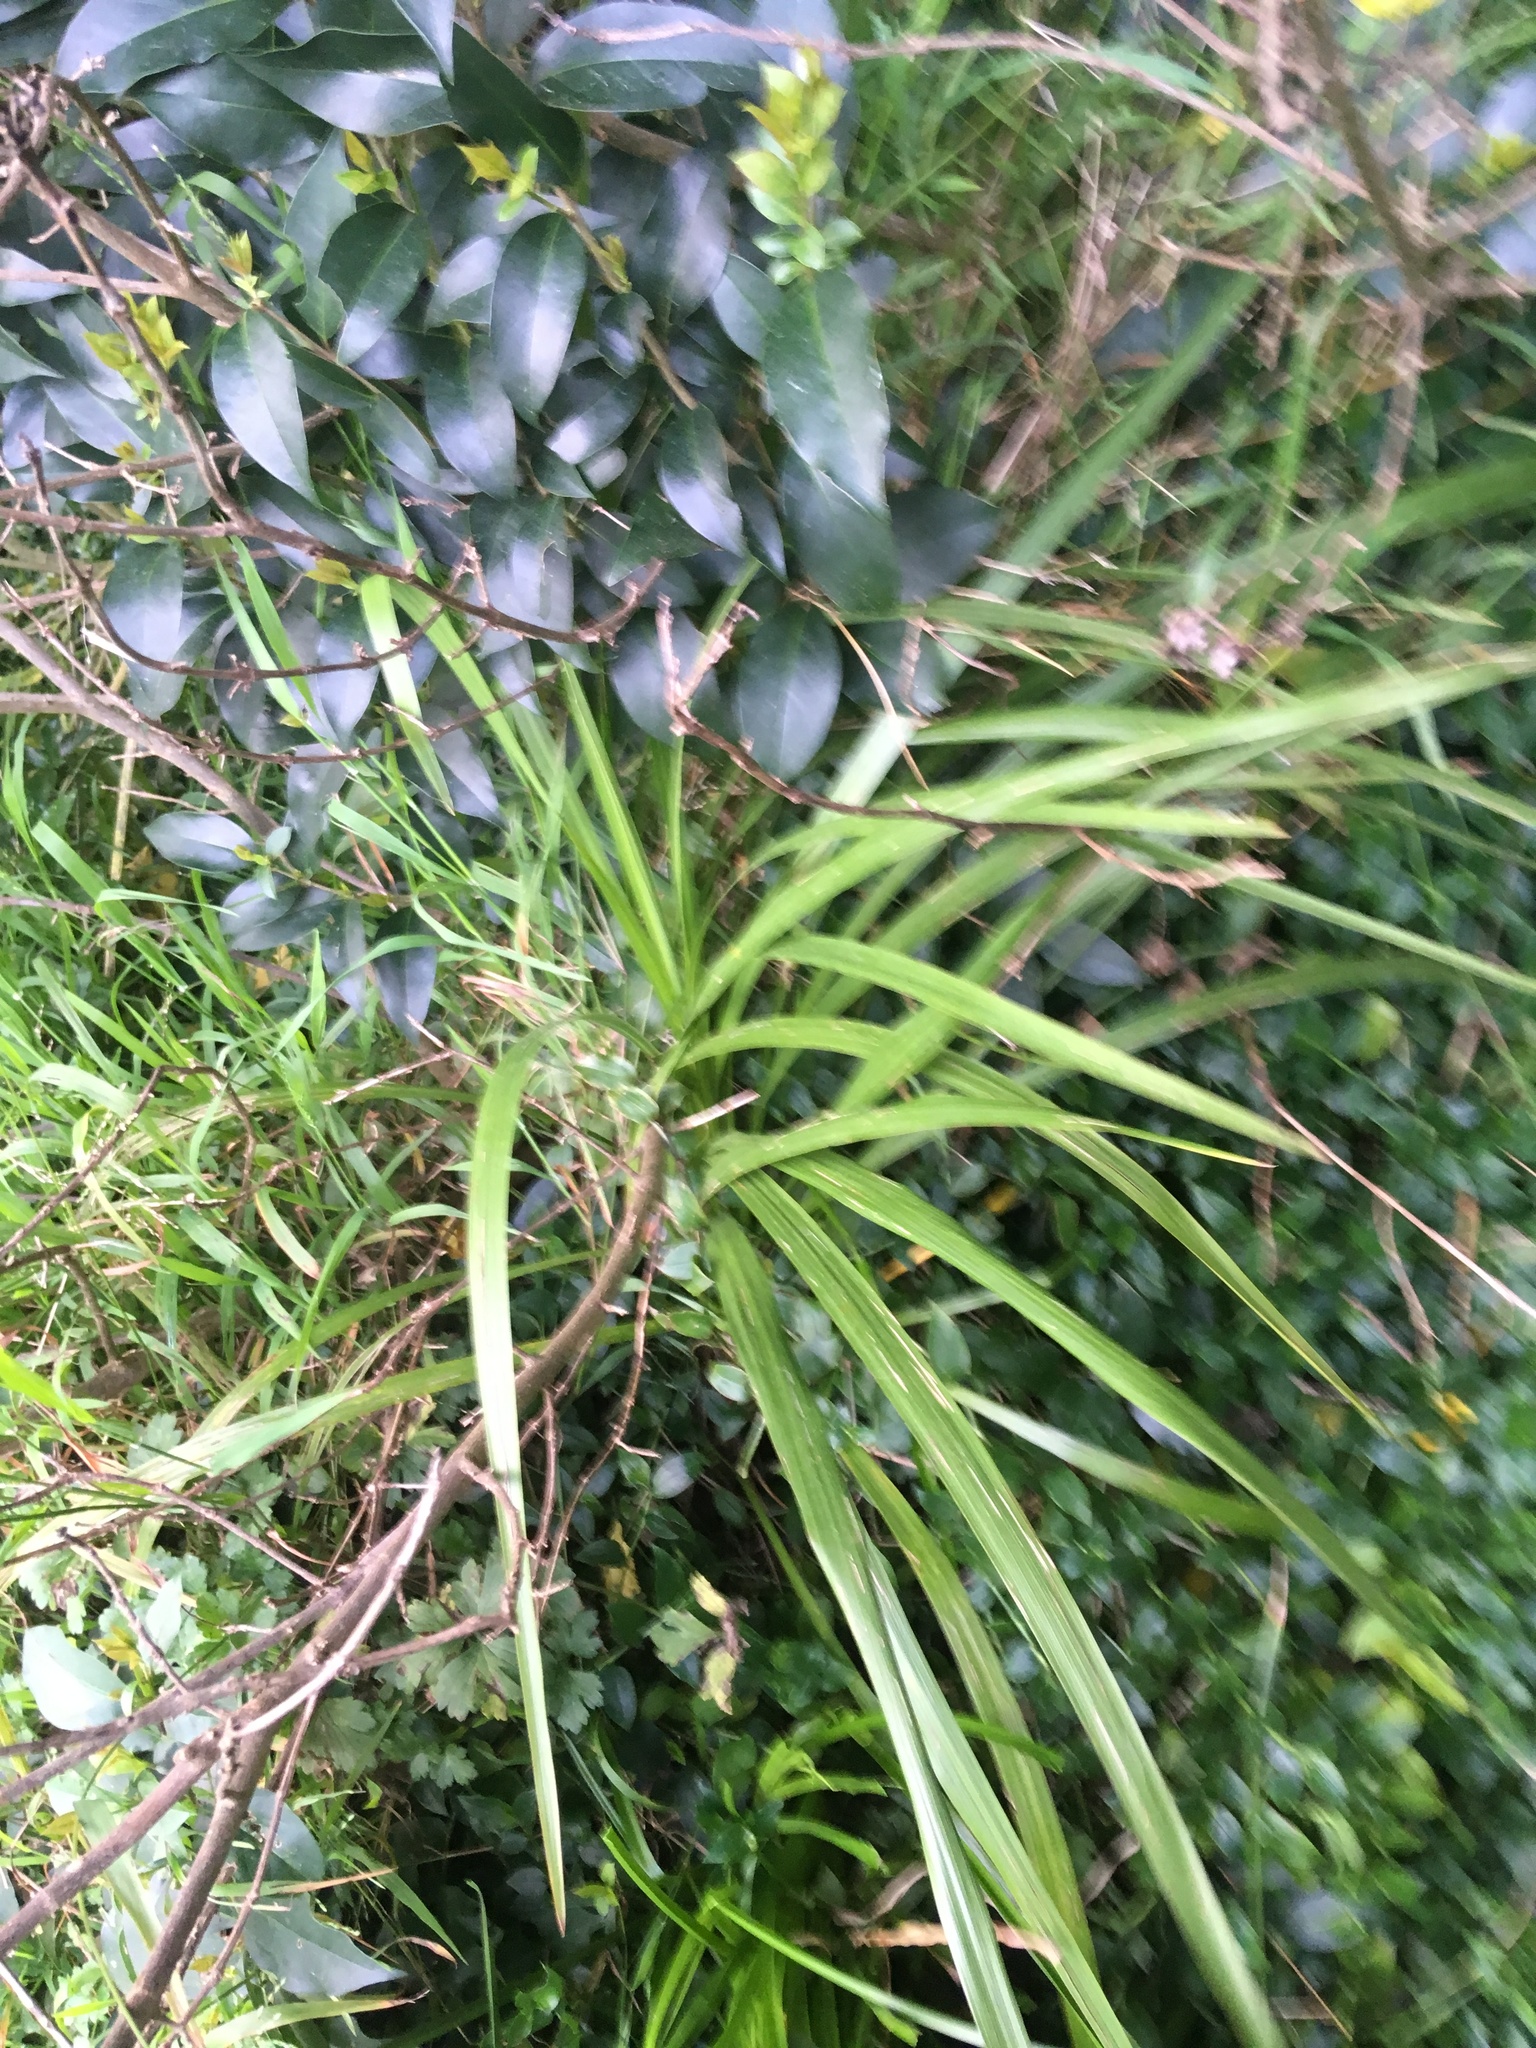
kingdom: Plantae
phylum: Tracheophyta
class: Liliopsida
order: Asparagales
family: Asparagaceae
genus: Cordyline
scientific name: Cordyline australis
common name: Cabbage-palm
